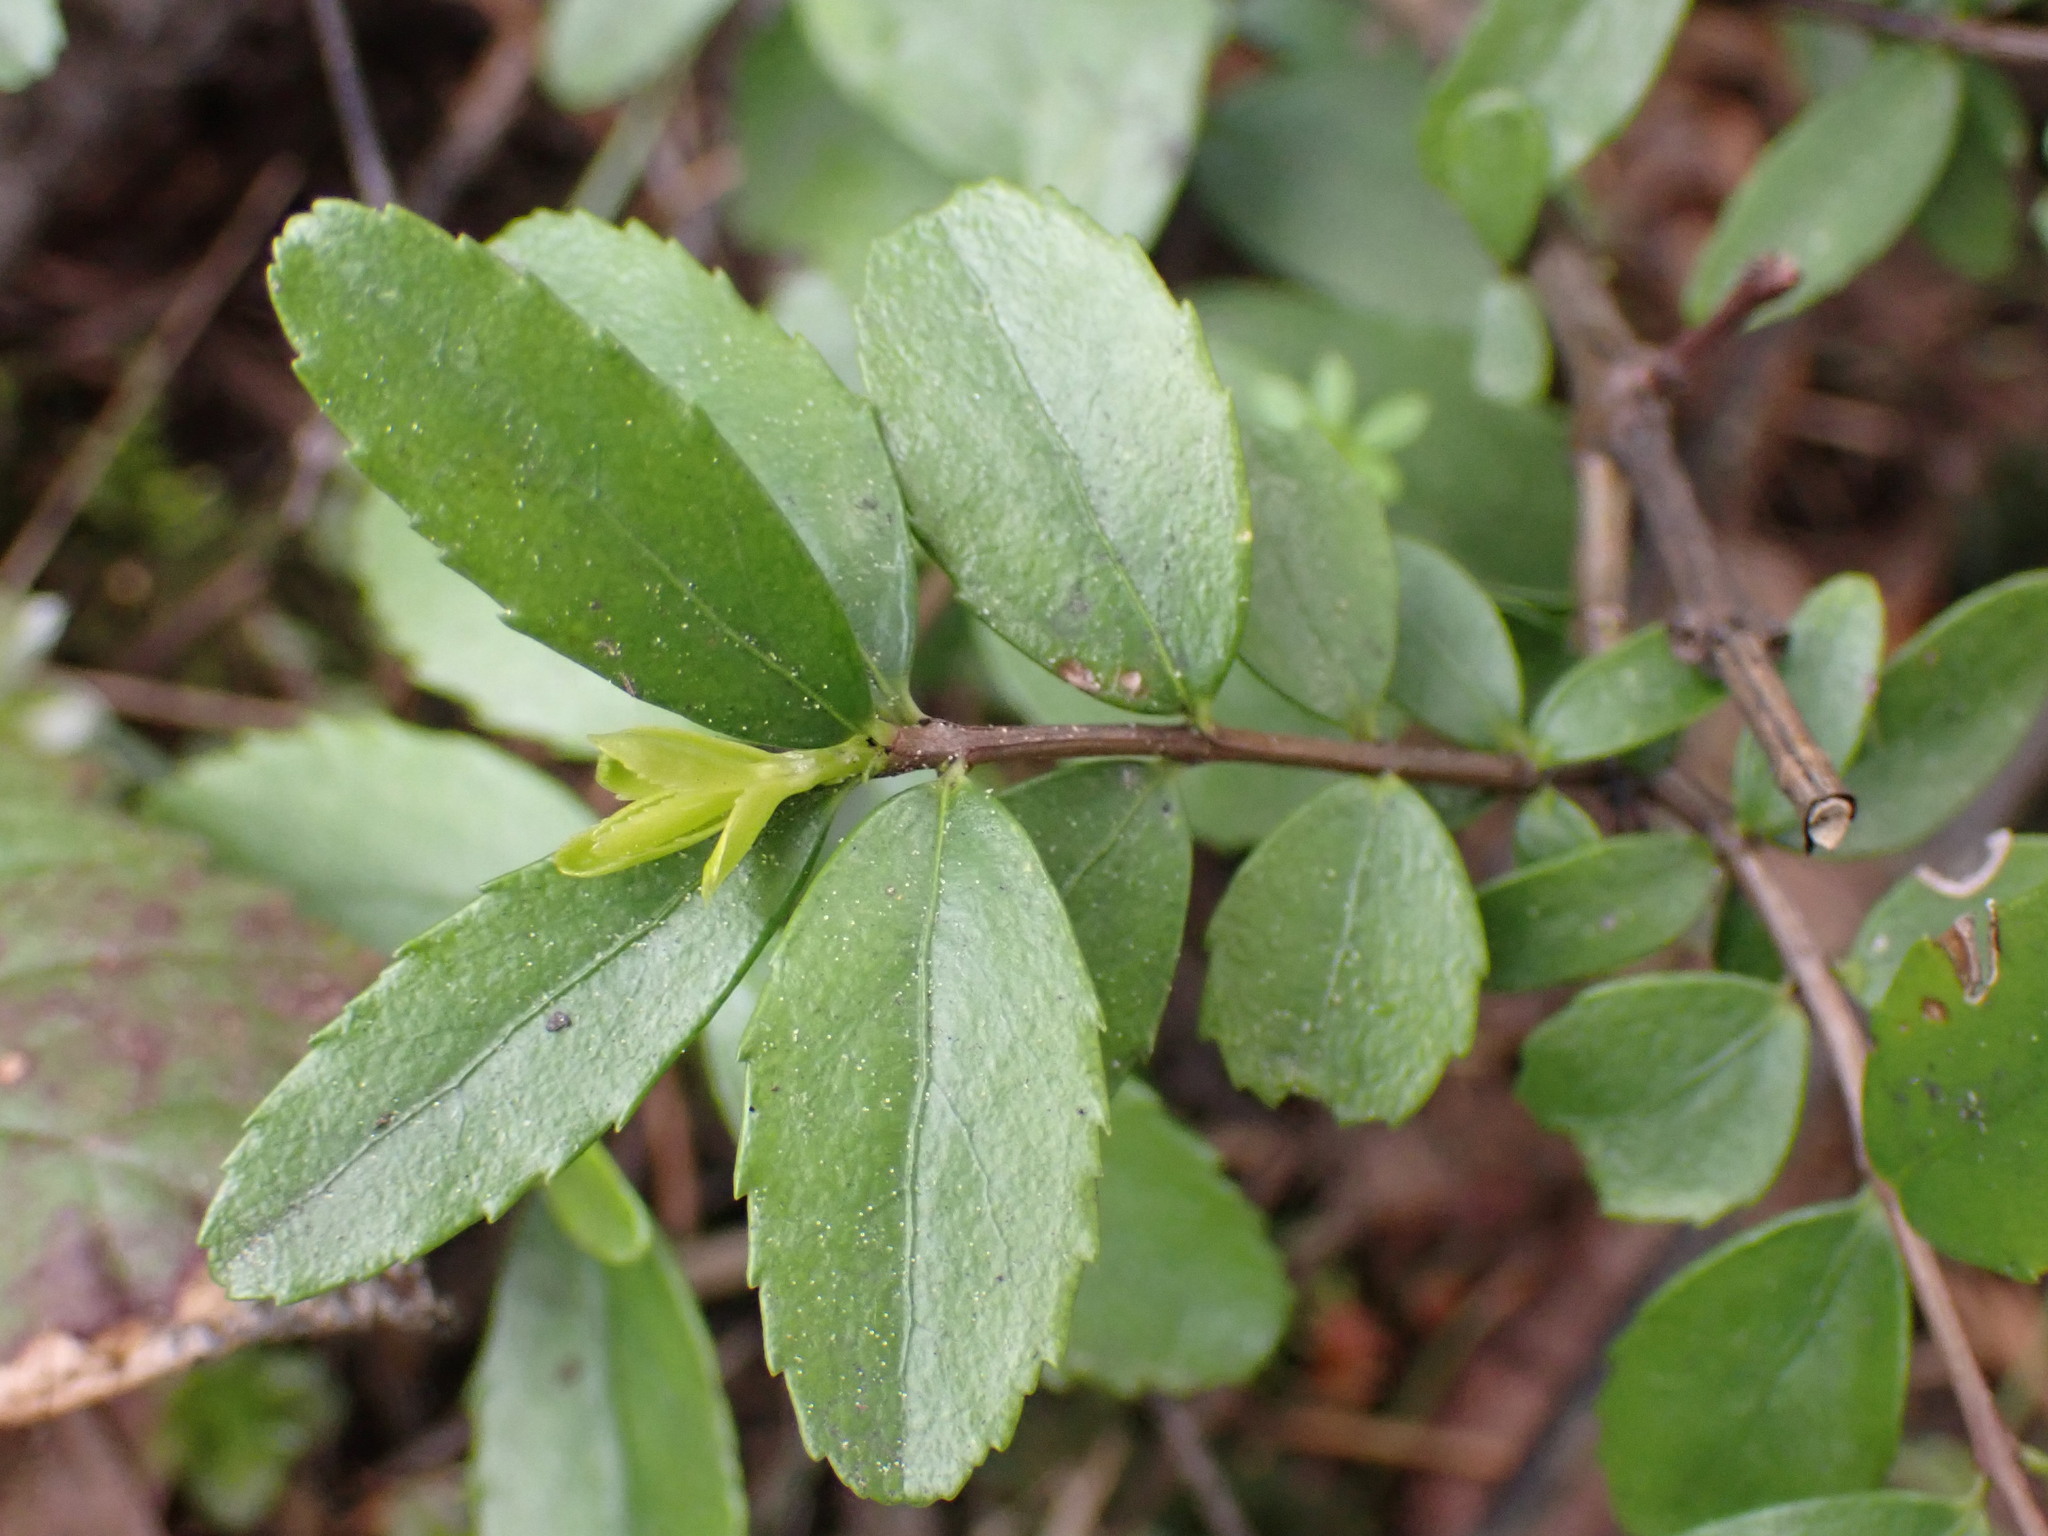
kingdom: Plantae
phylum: Tracheophyta
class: Magnoliopsida
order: Celastrales
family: Celastraceae
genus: Paxistima
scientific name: Paxistima myrsinites
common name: Mountain-lover
